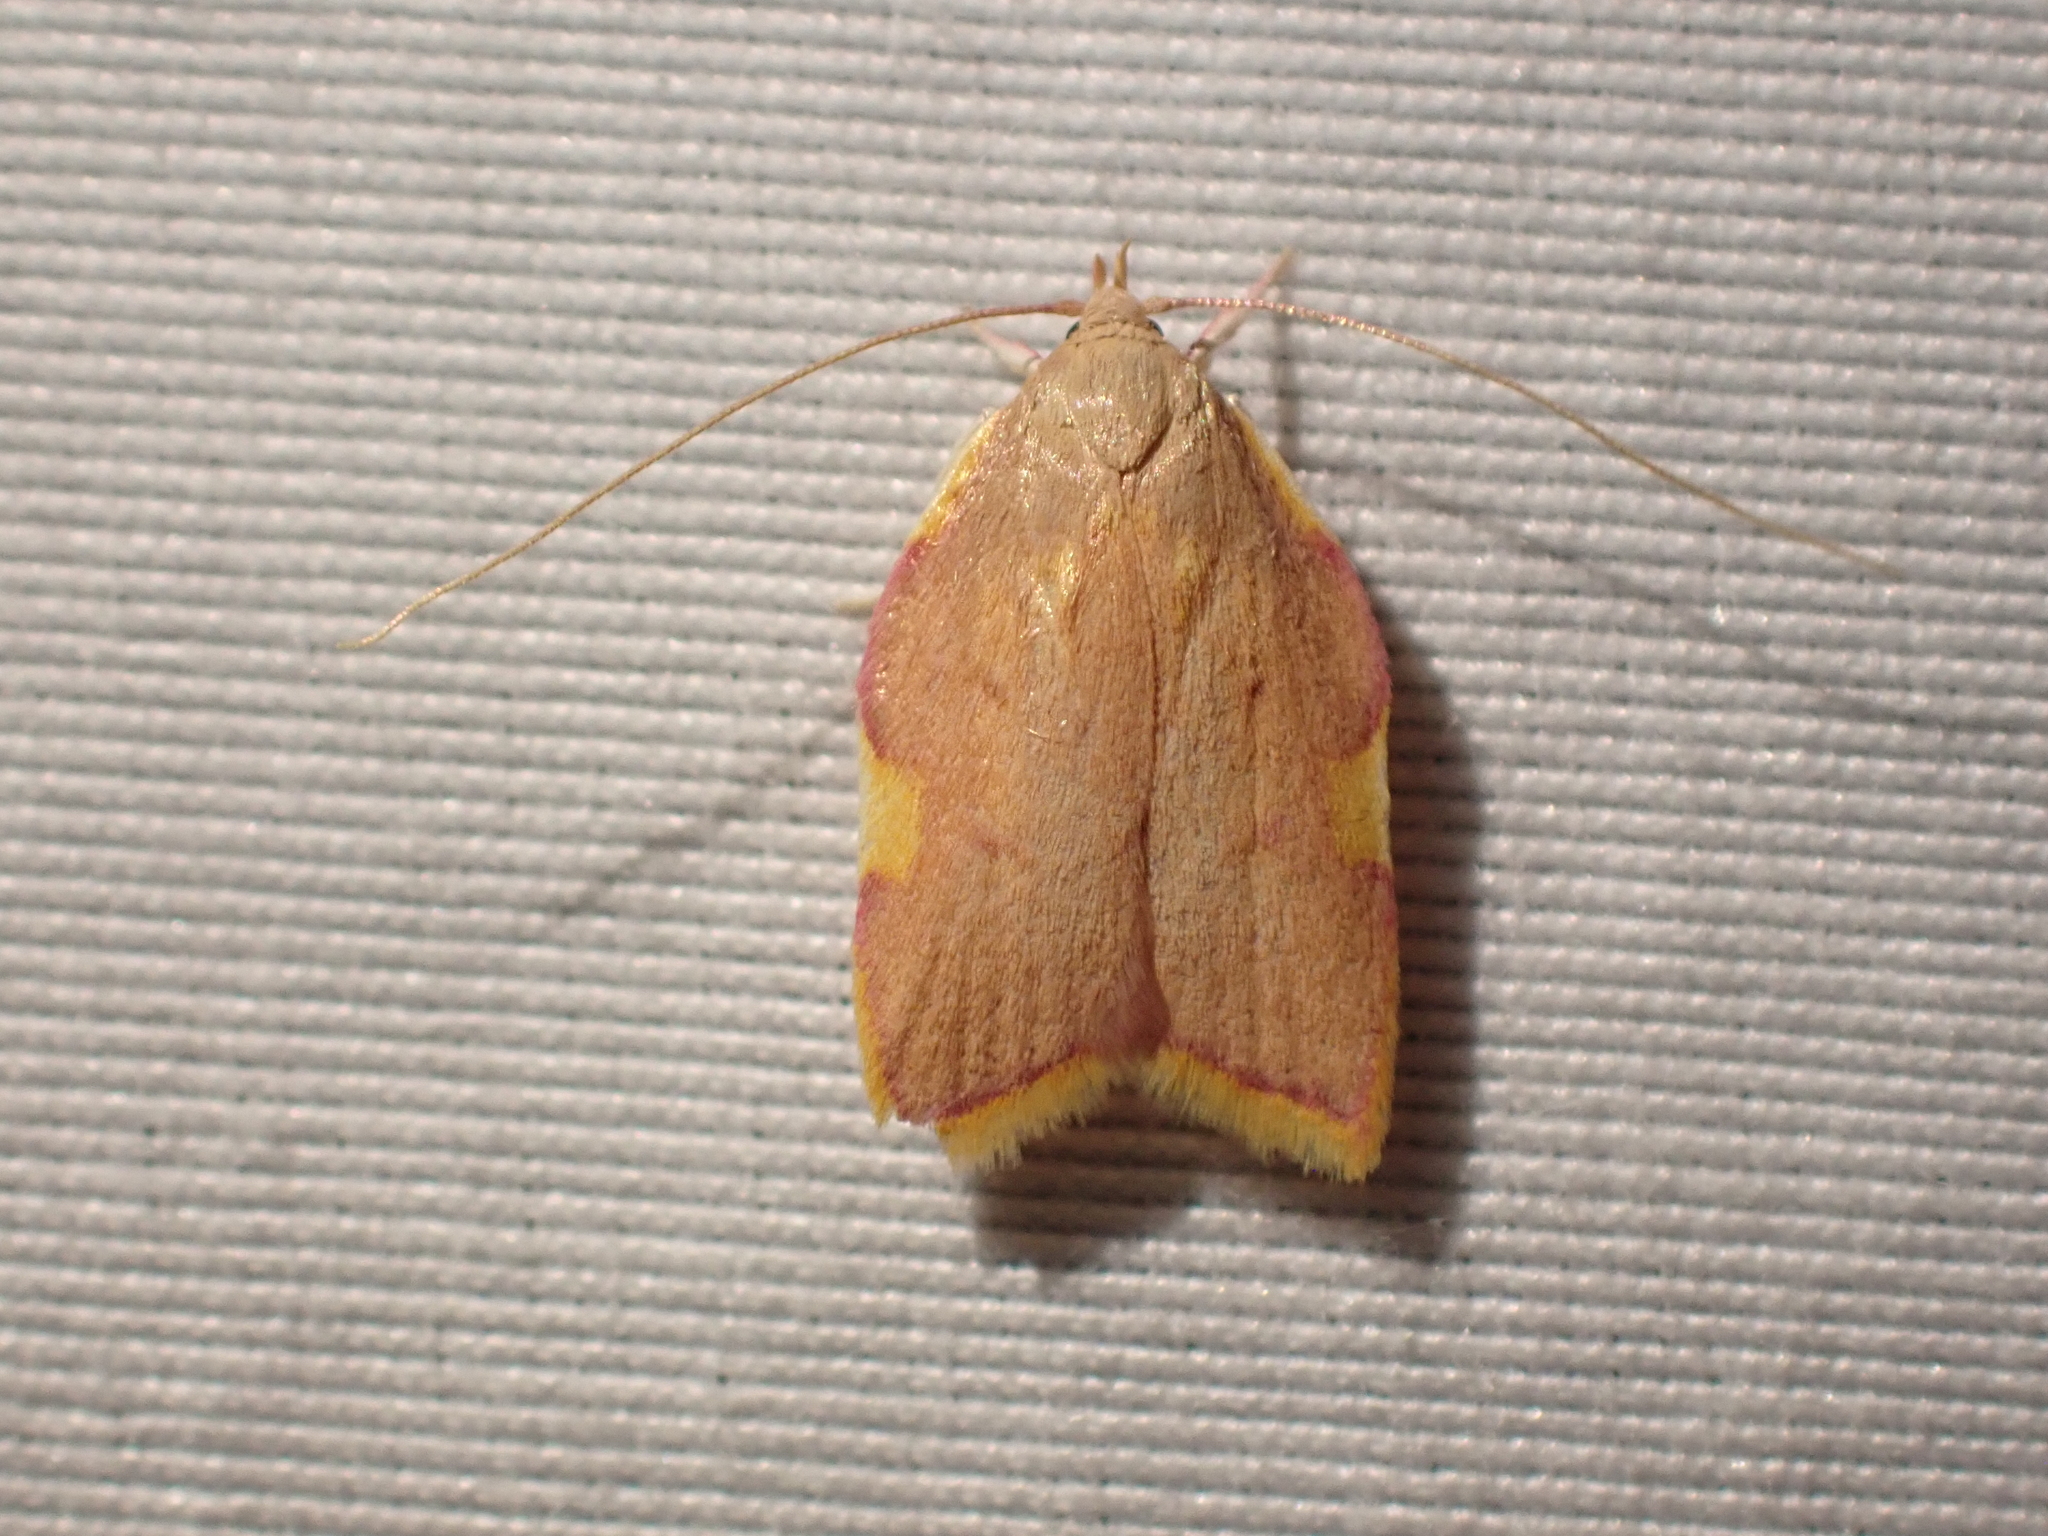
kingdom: Animalia
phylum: Arthropoda
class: Insecta
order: Lepidoptera
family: Peleopodidae
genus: Carcina
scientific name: Carcina quercana
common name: Moth
